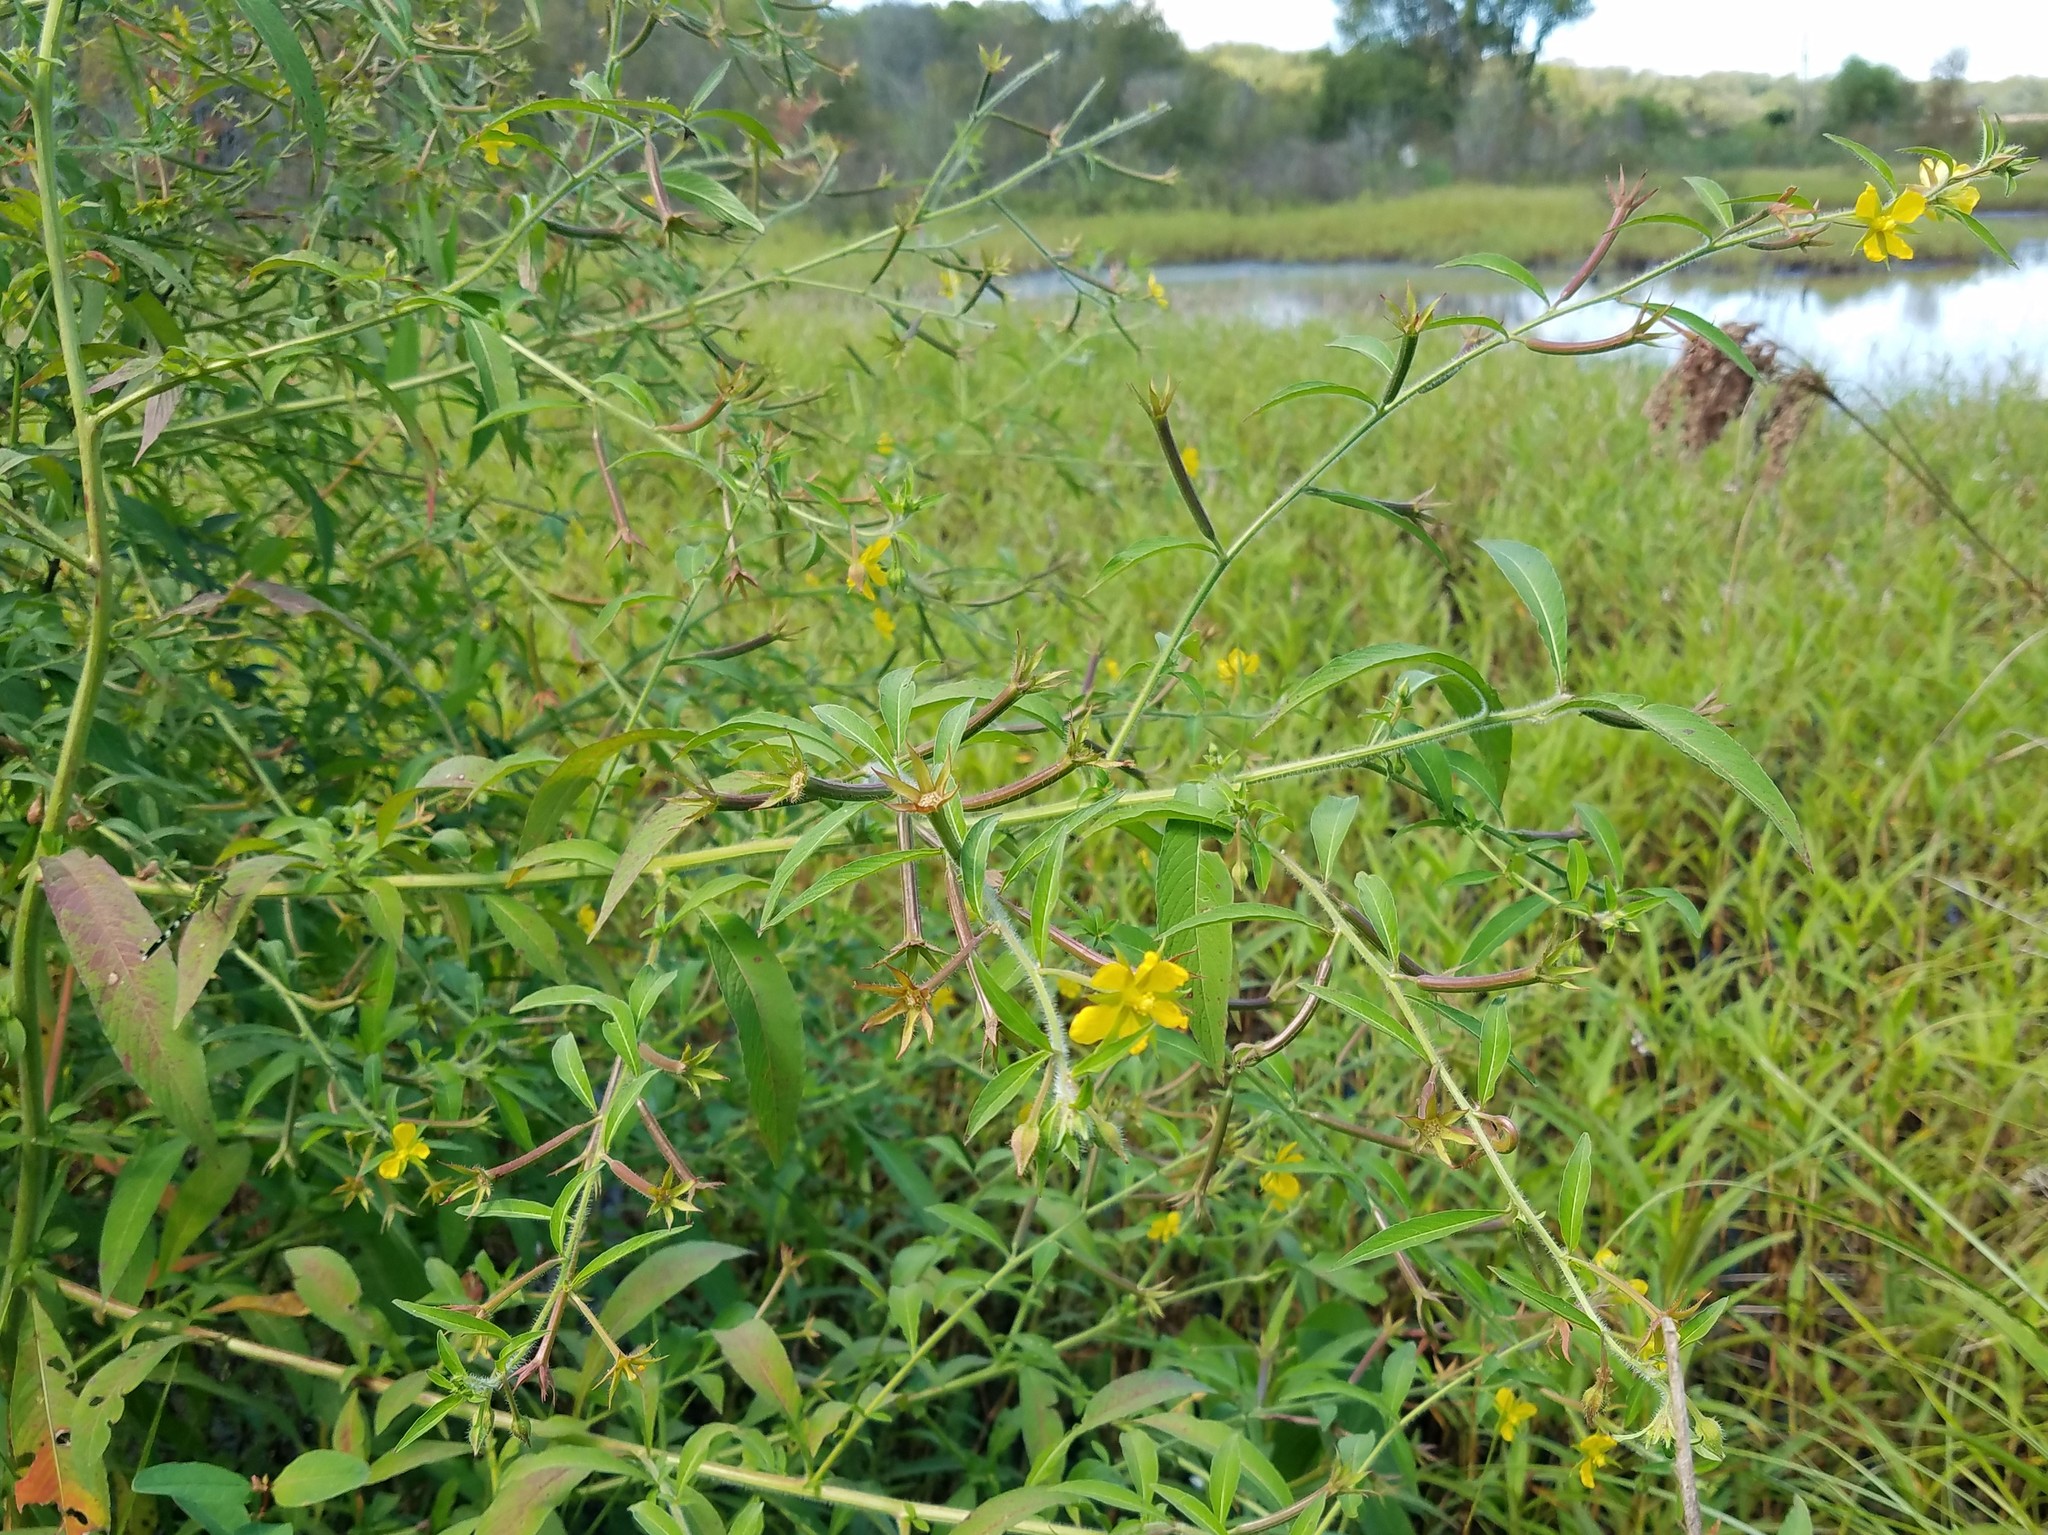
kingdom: Plantae
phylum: Tracheophyta
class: Magnoliopsida
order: Myrtales
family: Onagraceae
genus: Ludwigia
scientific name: Ludwigia leptocarpa
